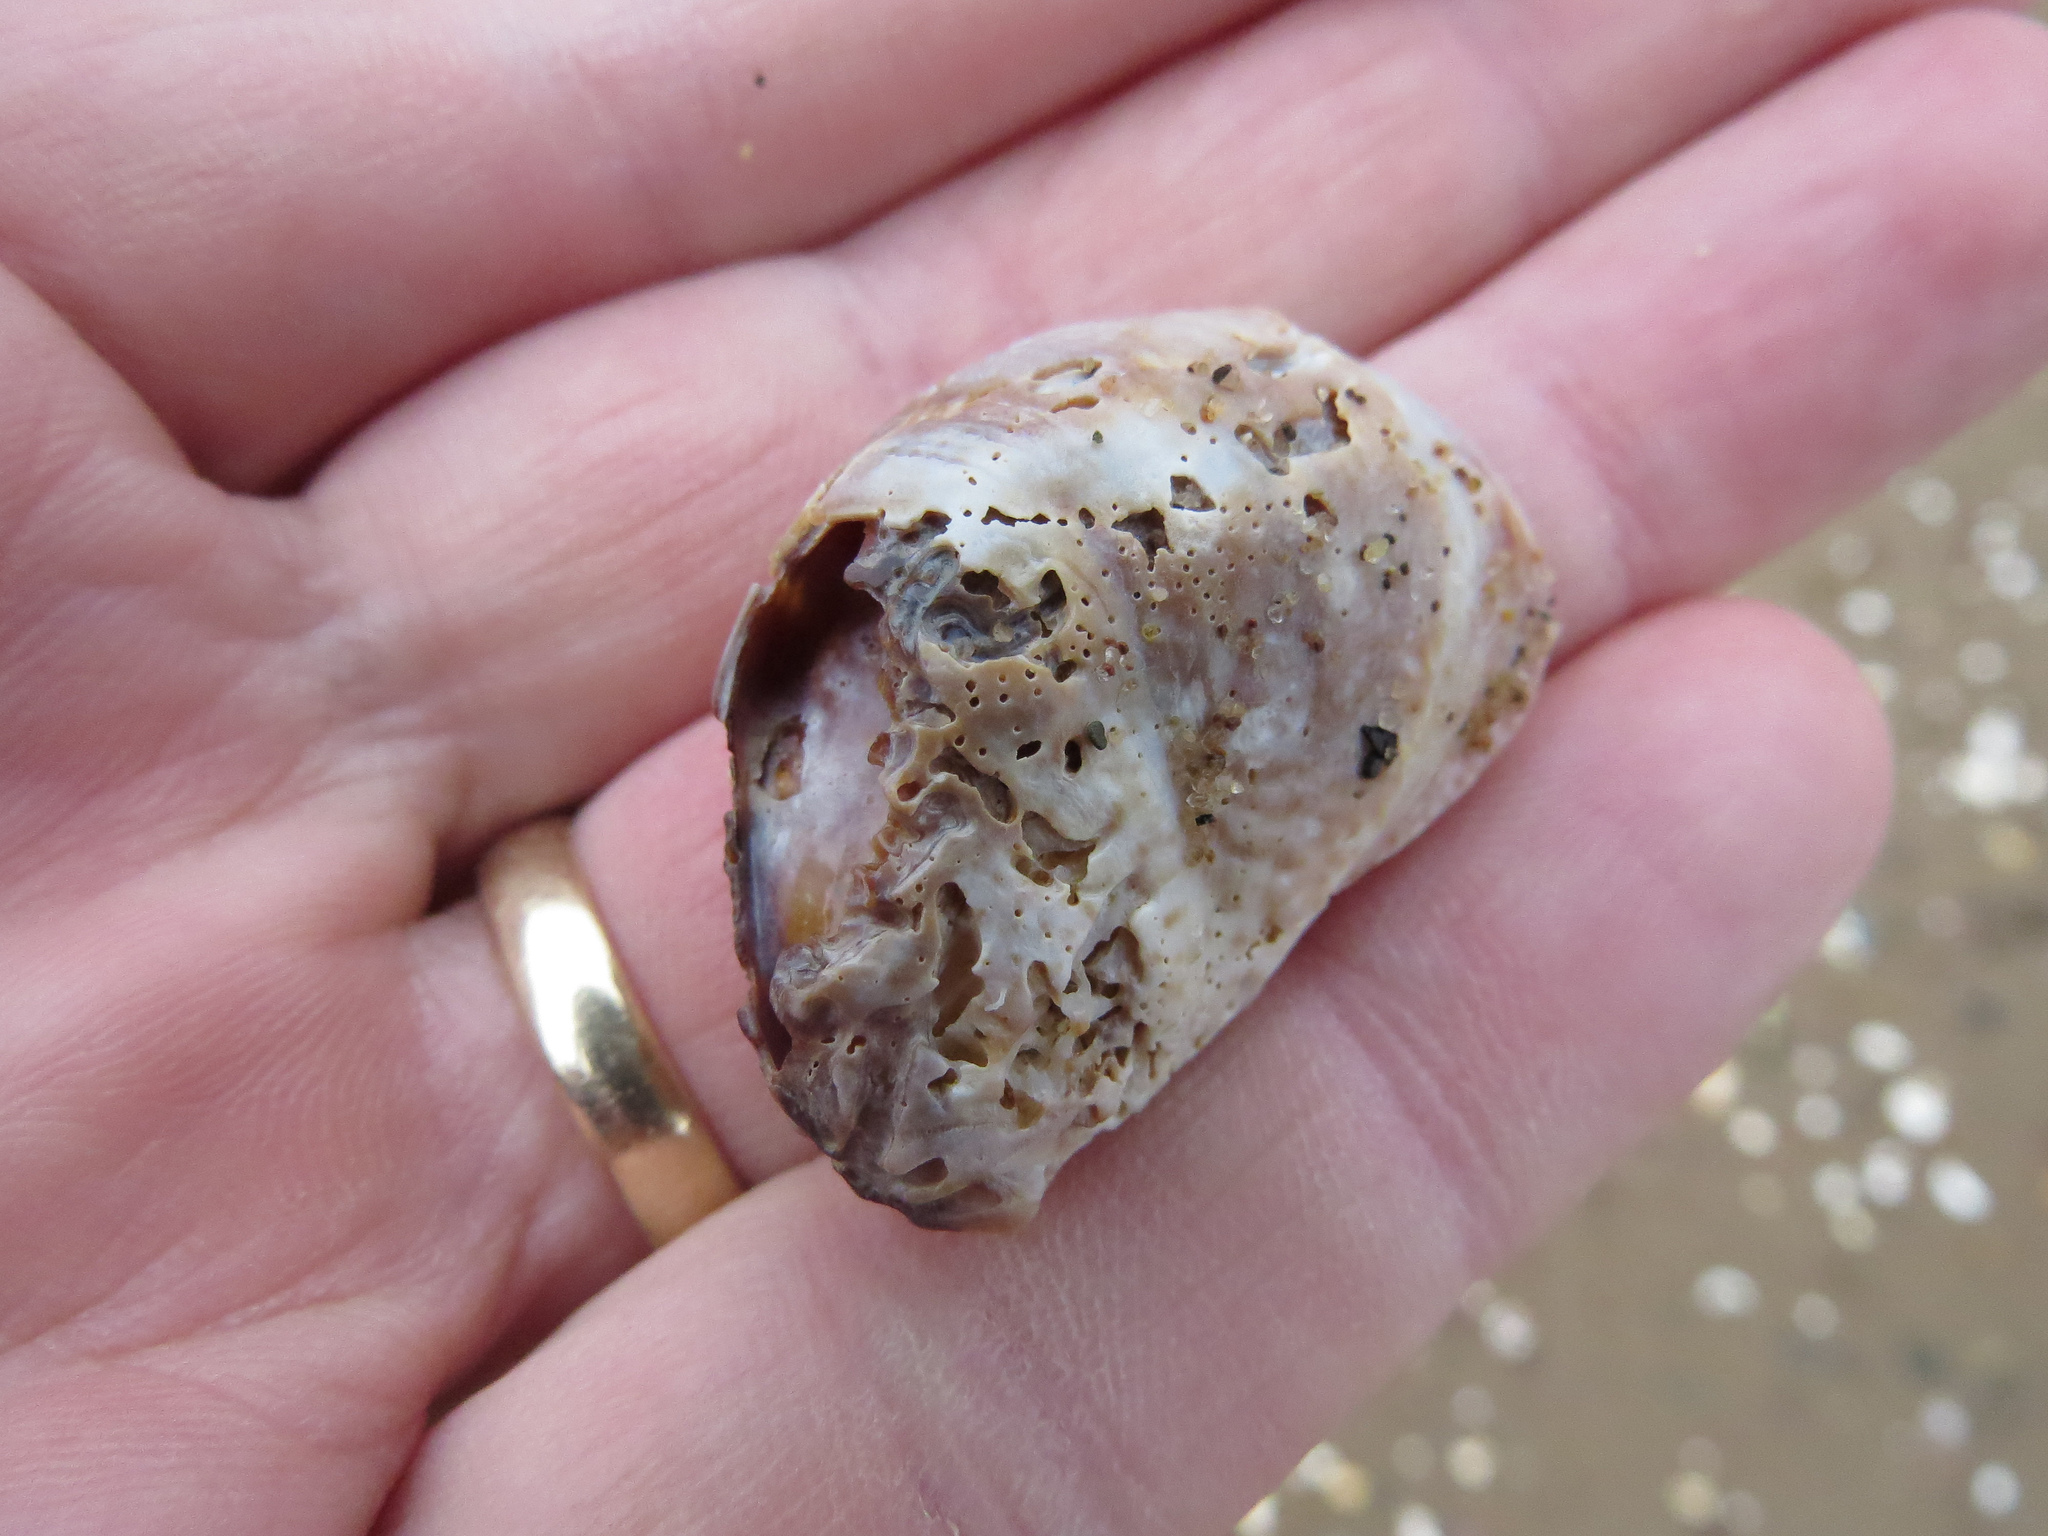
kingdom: Animalia
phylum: Mollusca
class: Gastropoda
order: Littorinimorpha
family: Calyptraeidae
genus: Crepidula
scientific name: Crepidula fornicata
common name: Slipper limpet
